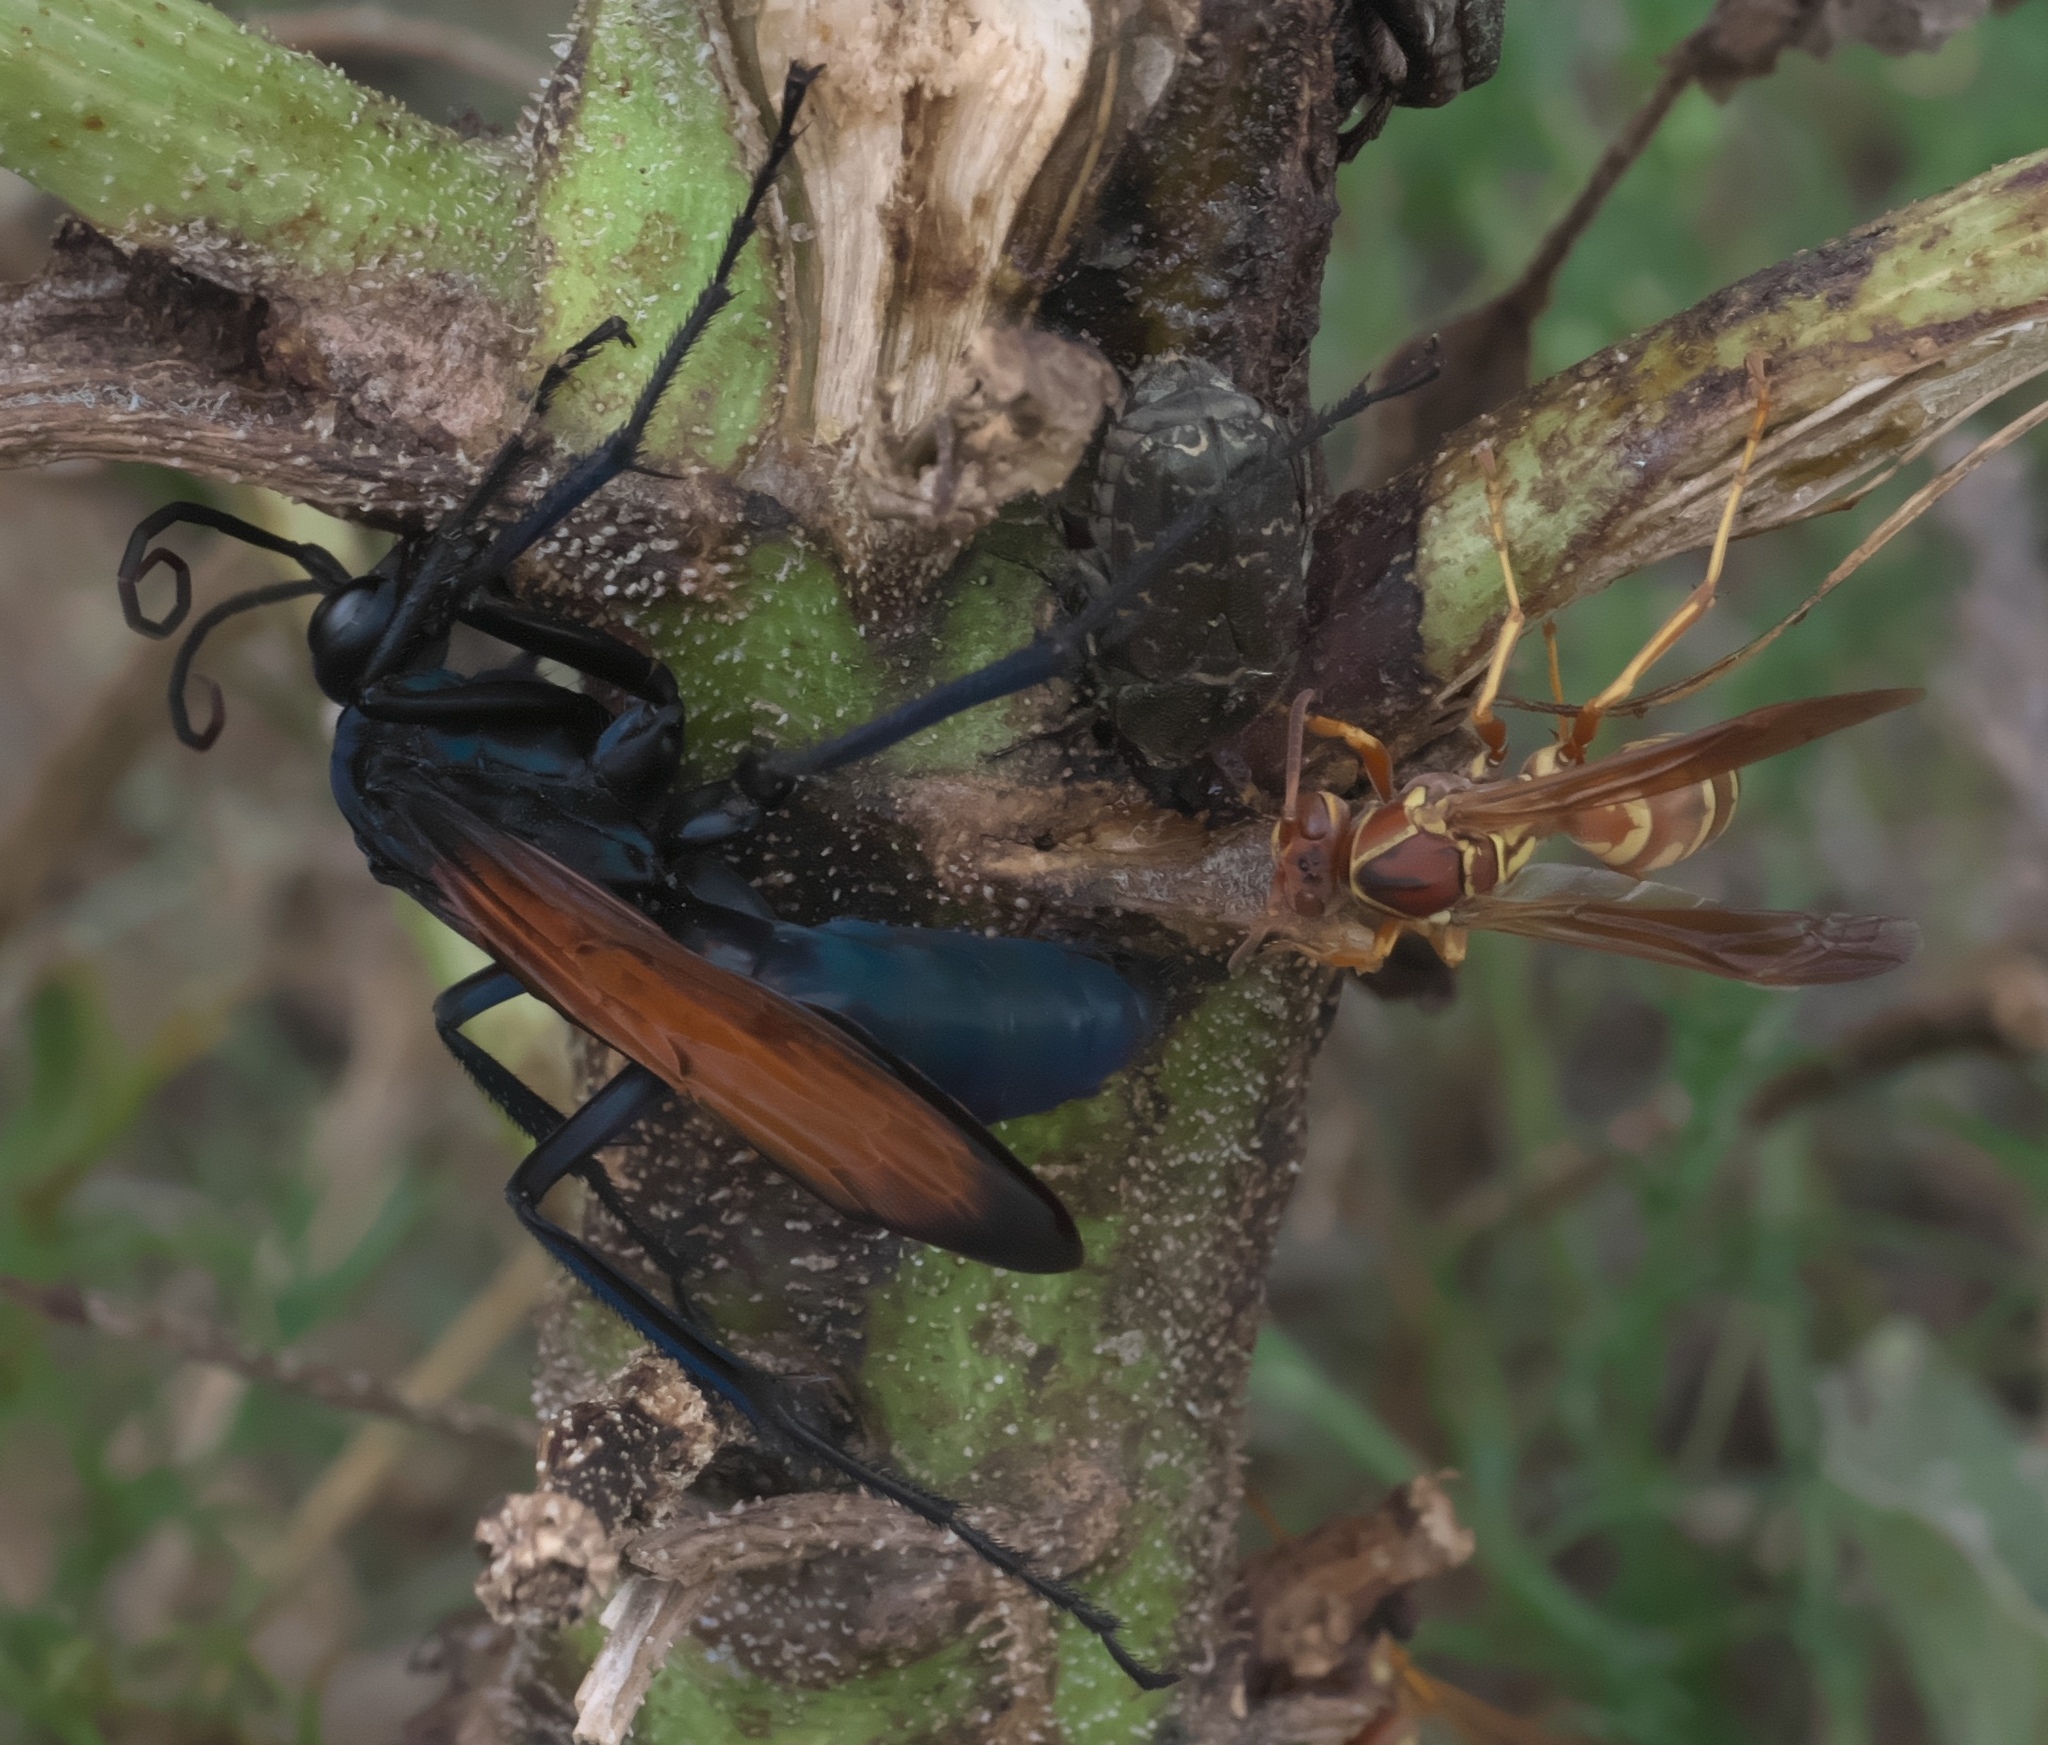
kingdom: Animalia
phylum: Arthropoda
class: Insecta
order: Hymenoptera
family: Pompilidae
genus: Pepsis
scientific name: Pepsis grossa
